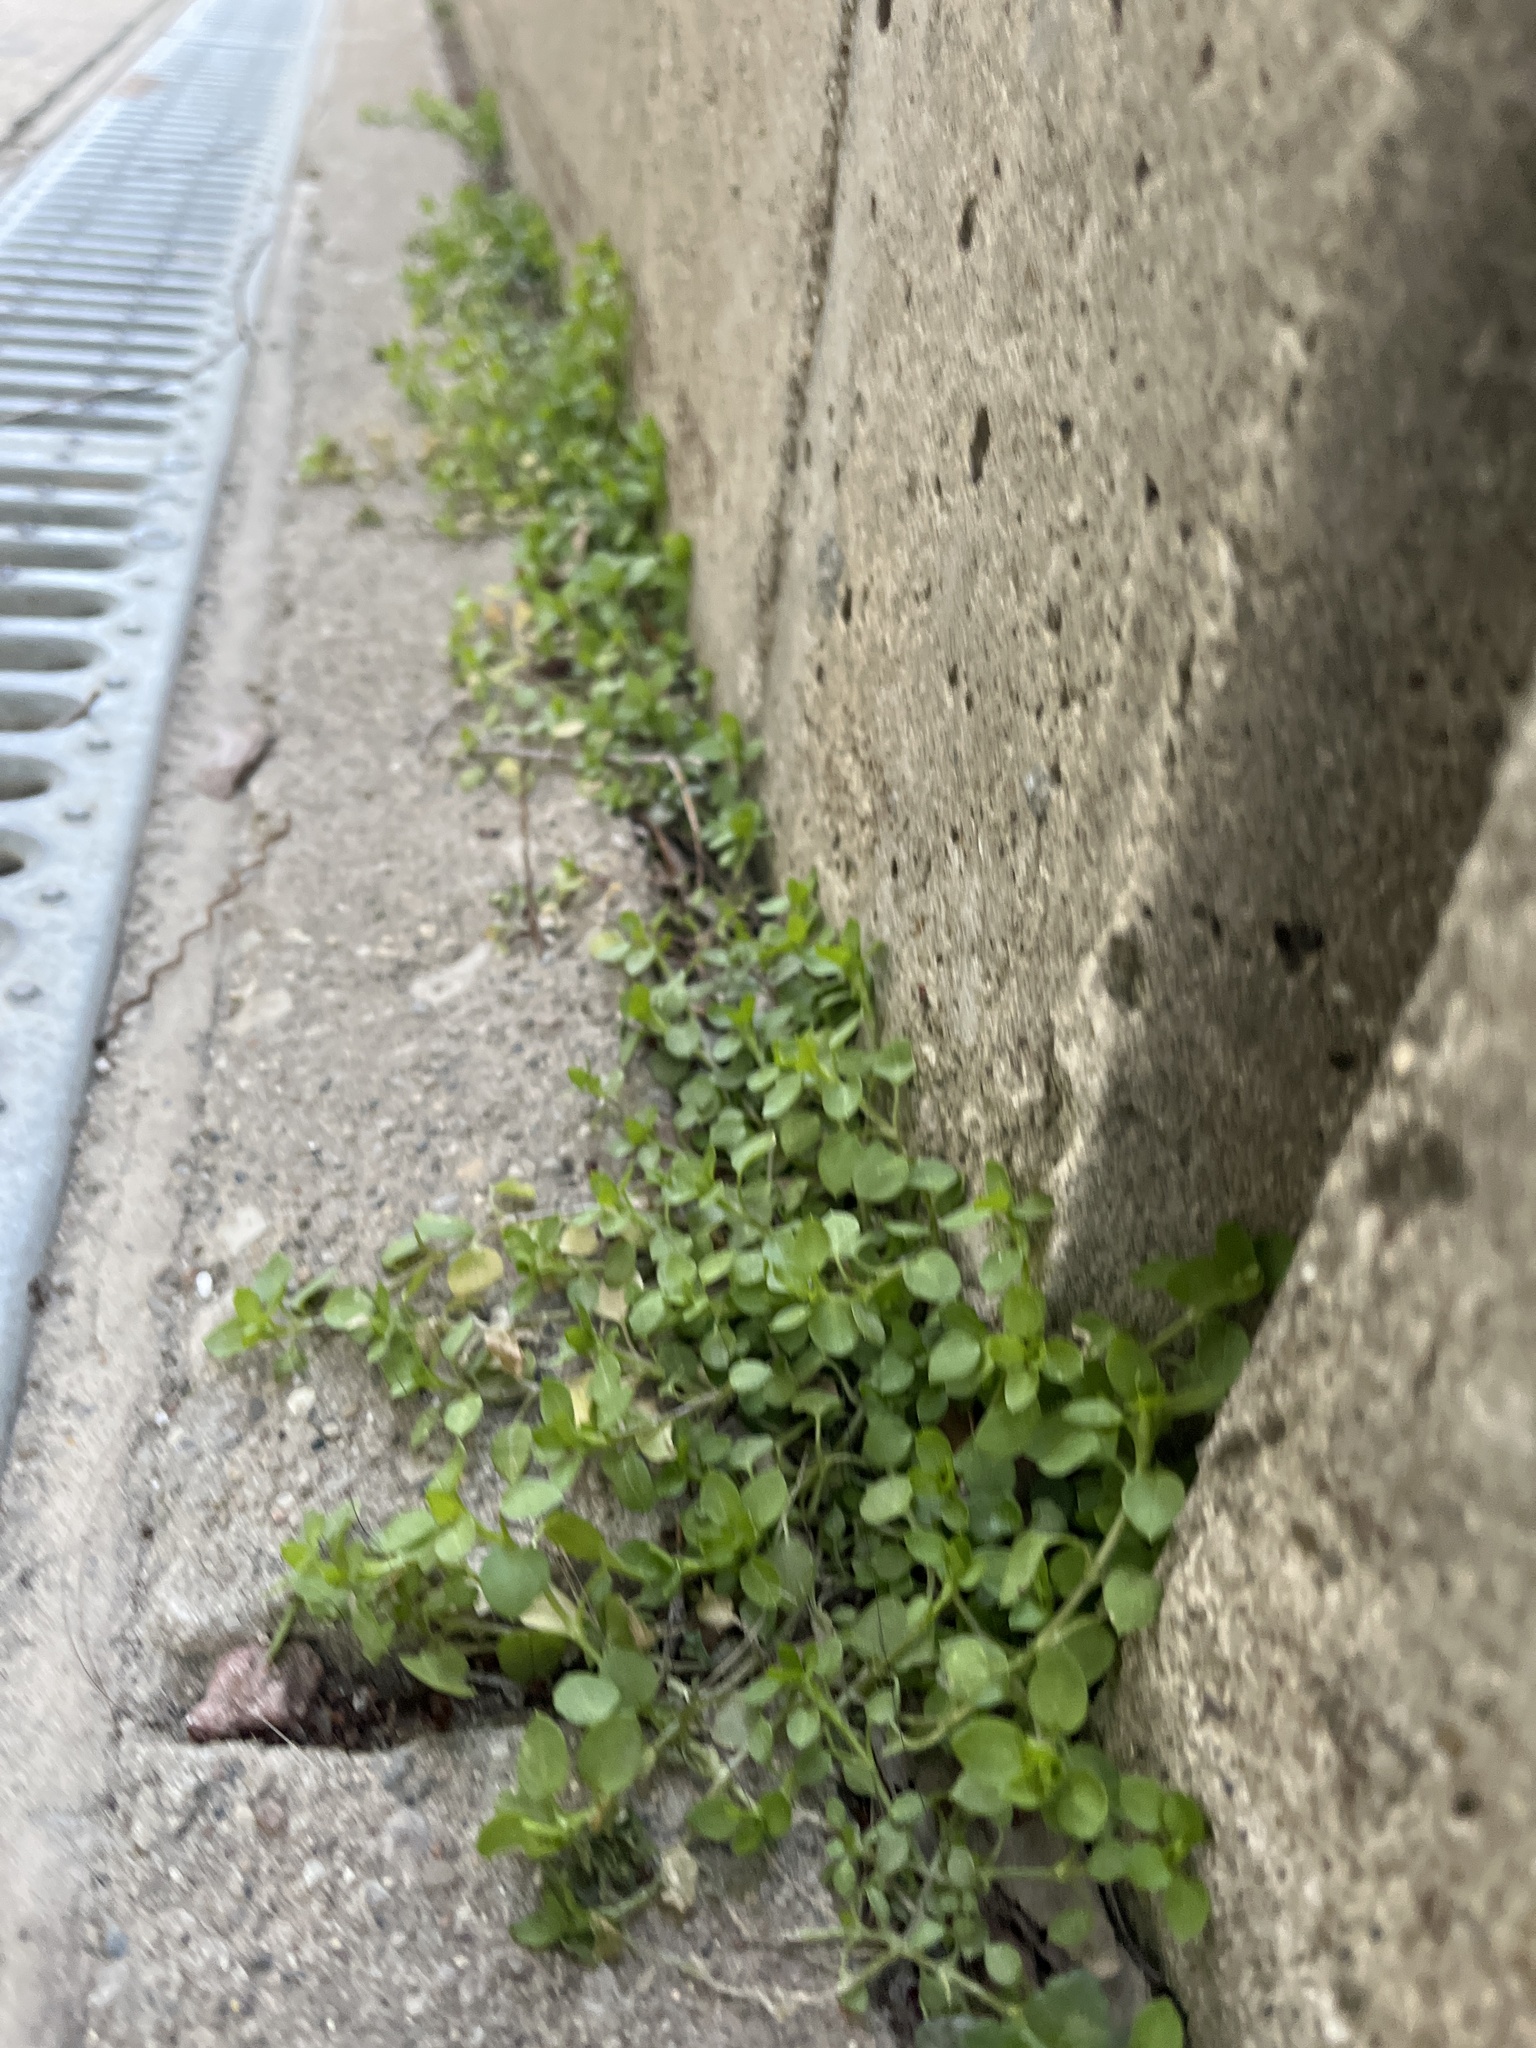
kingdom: Plantae
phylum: Tracheophyta
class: Magnoliopsida
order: Caryophyllales
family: Caryophyllaceae
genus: Stellaria
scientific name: Stellaria media
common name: Common chickweed
